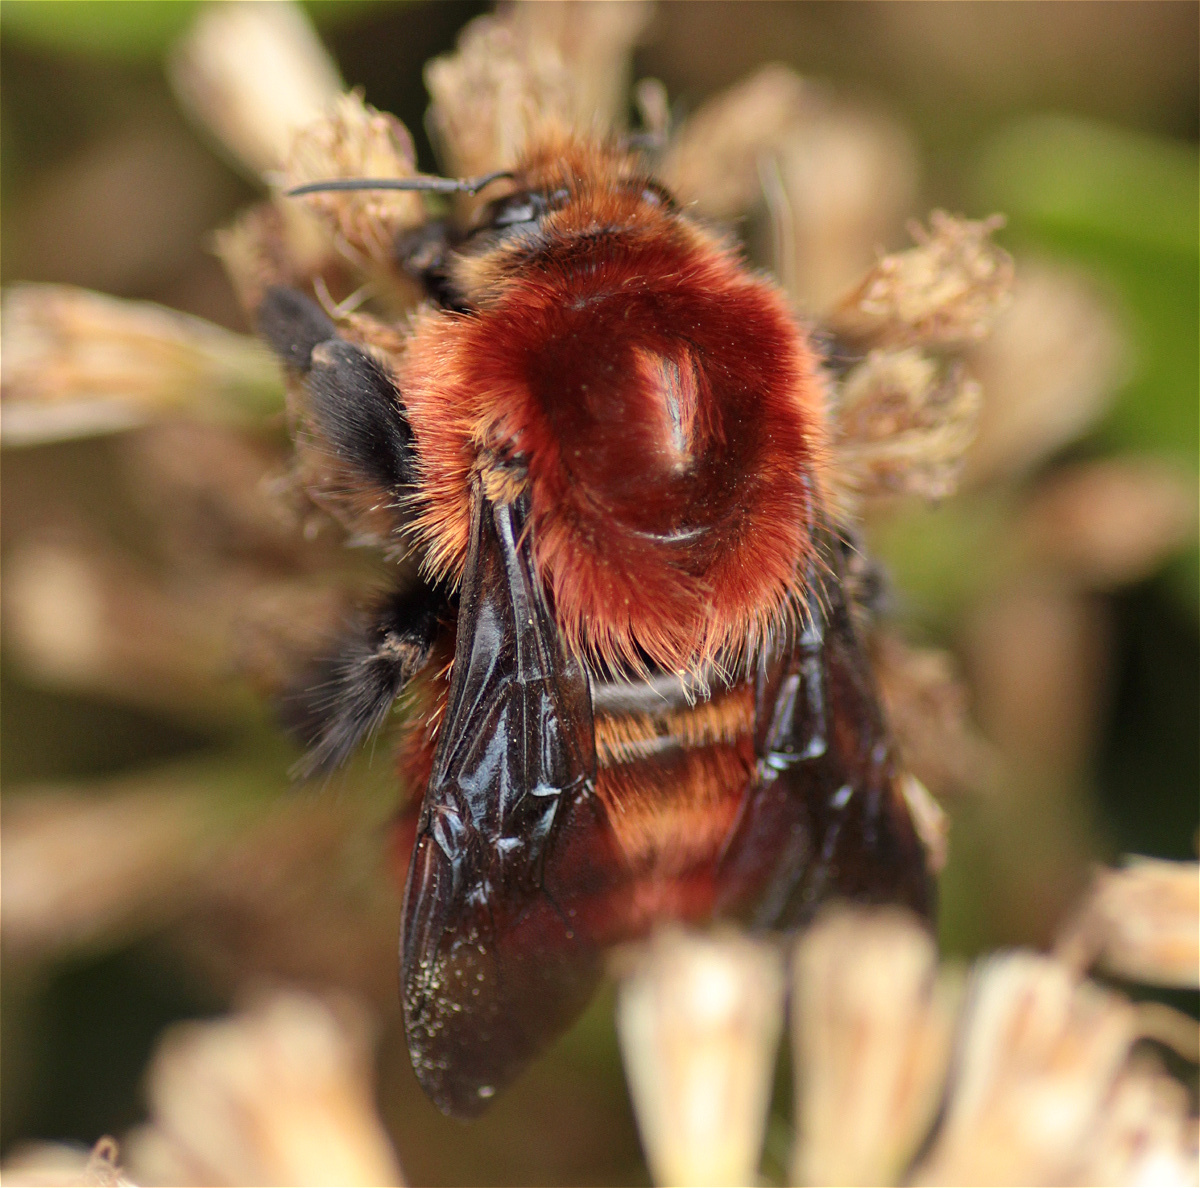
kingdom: Animalia
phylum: Arthropoda
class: Insecta
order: Hymenoptera
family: Apidae
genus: Bombus
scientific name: Bombus rubicundus
